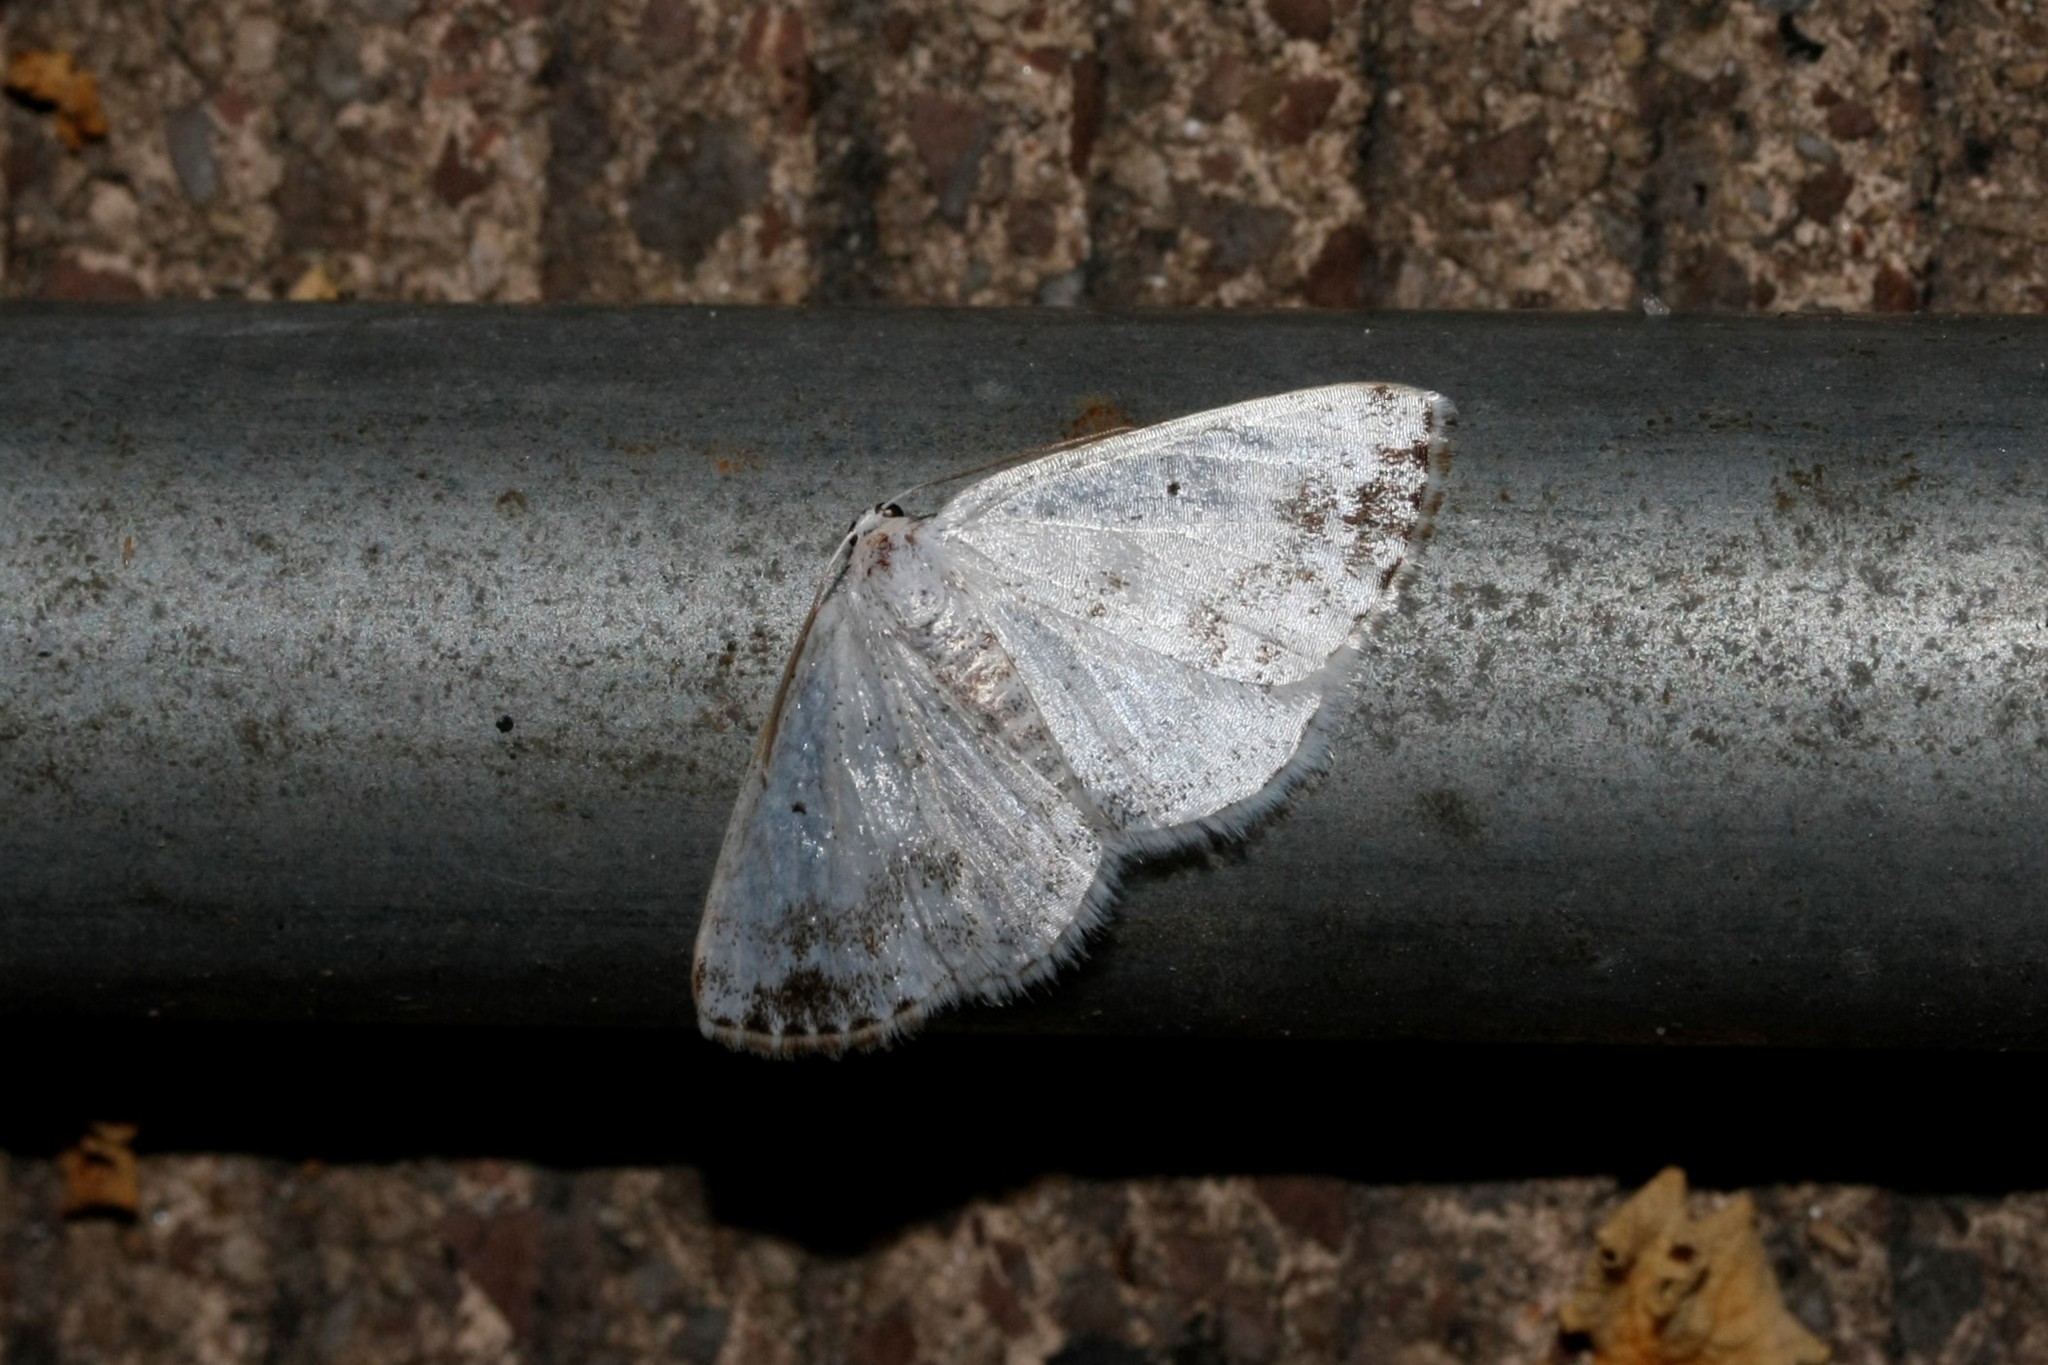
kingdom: Animalia
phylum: Arthropoda
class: Insecta
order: Lepidoptera
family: Geometridae
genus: Lomographa
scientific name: Lomographa temerata
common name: Clouded silver
